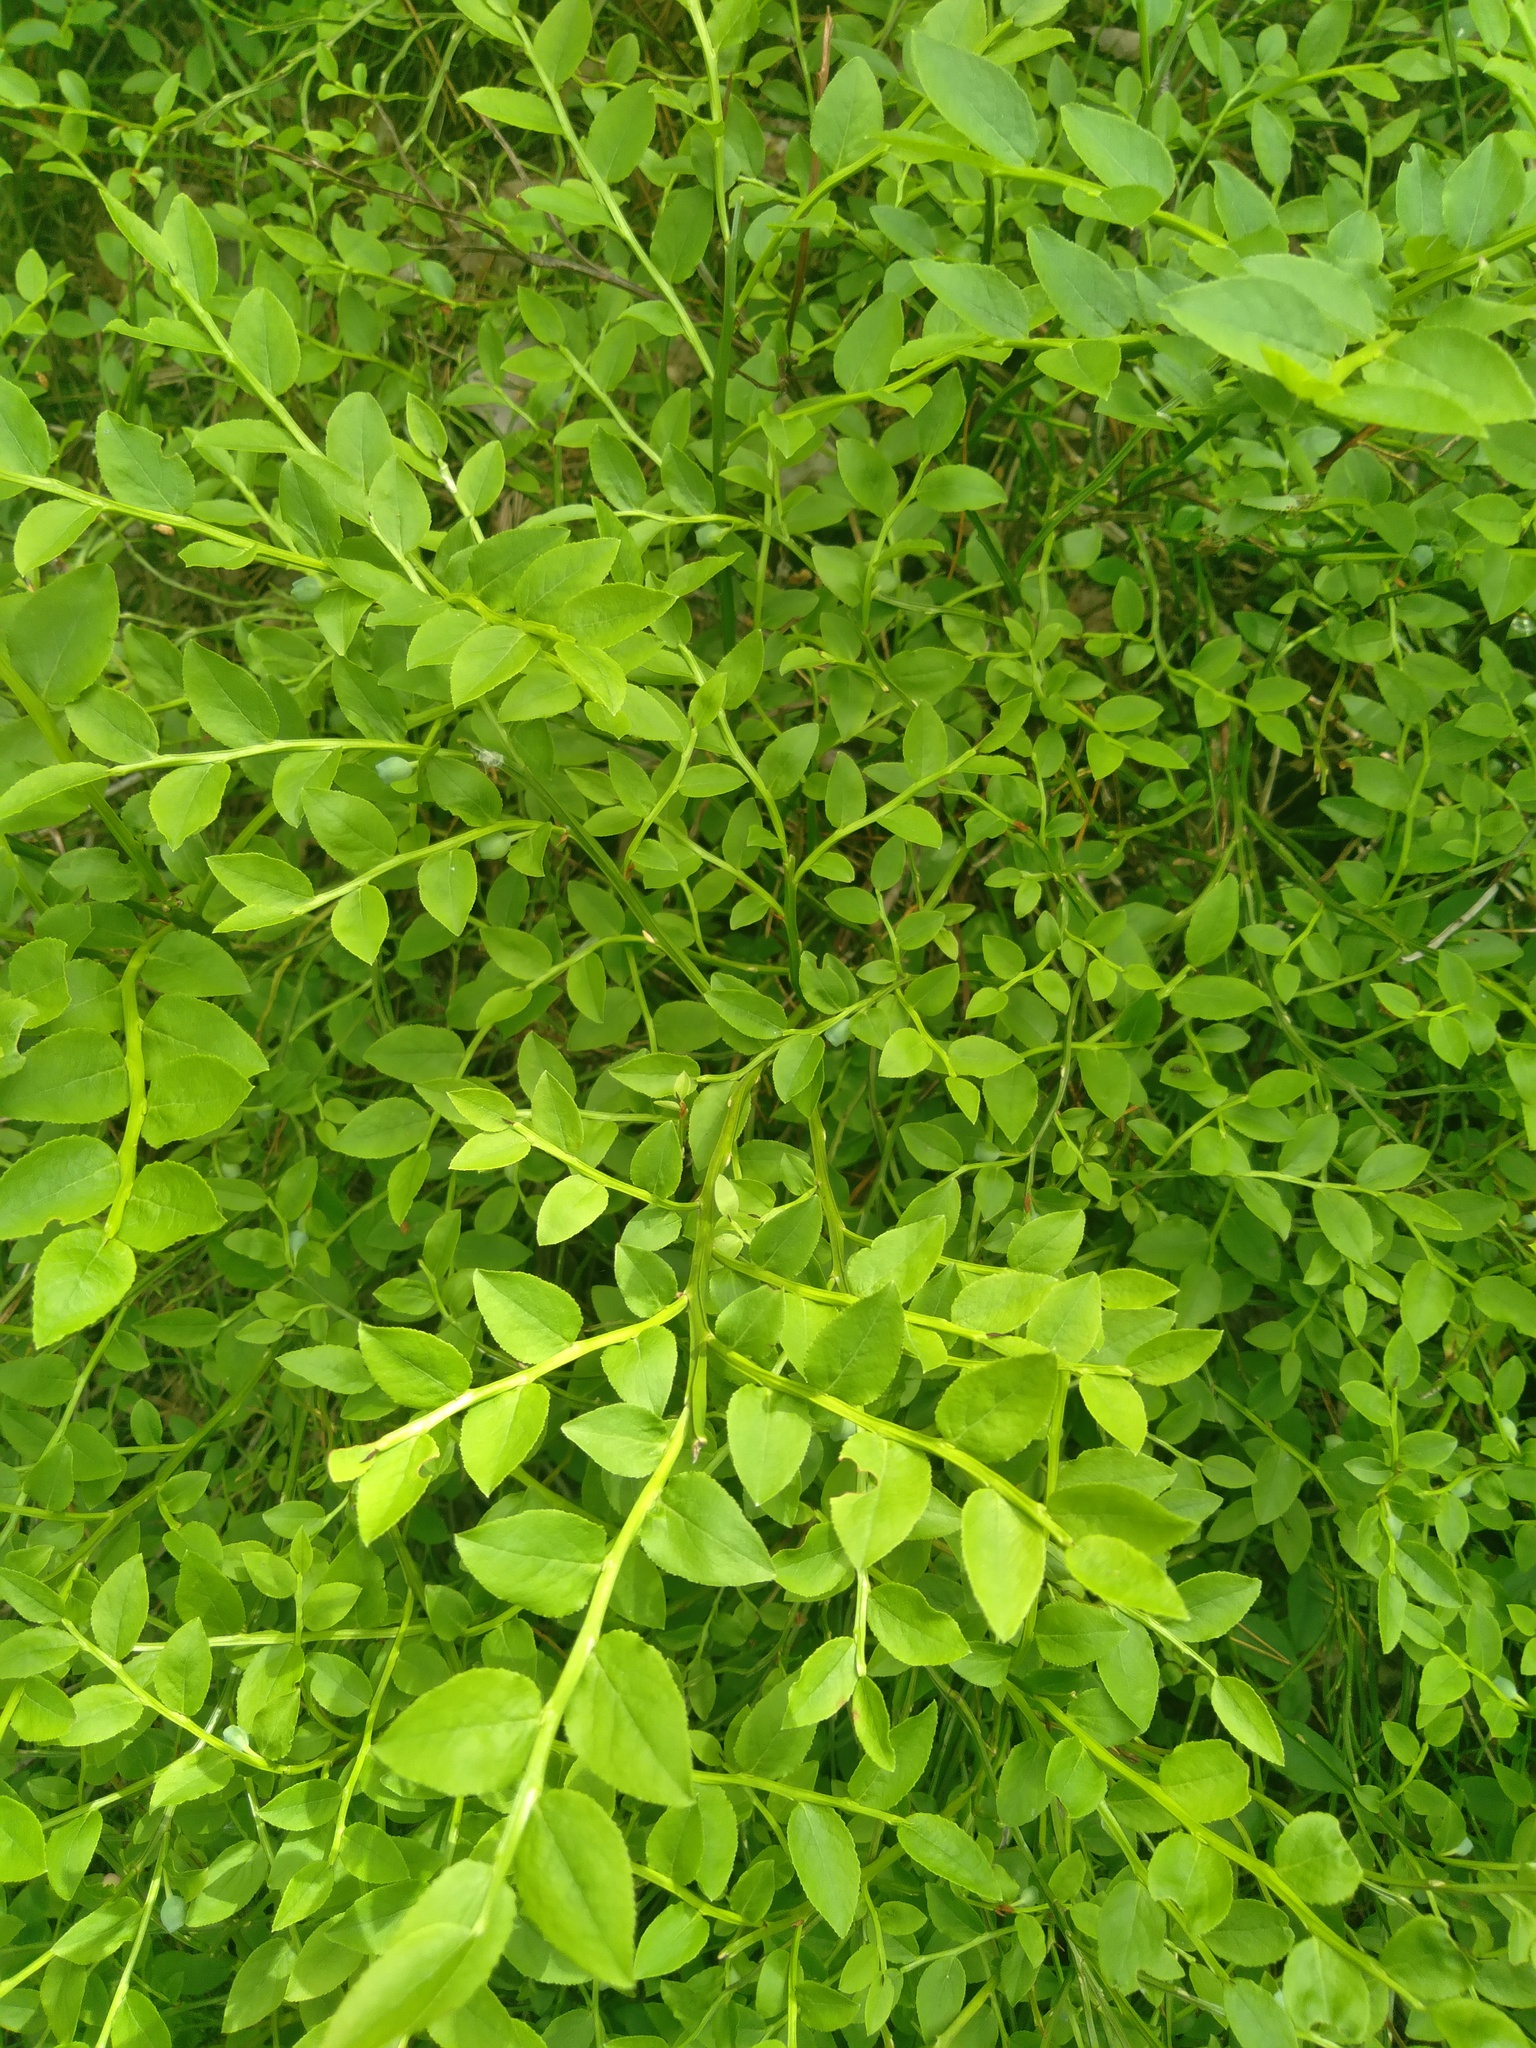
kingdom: Plantae
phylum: Tracheophyta
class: Magnoliopsida
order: Ericales
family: Ericaceae
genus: Vaccinium
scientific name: Vaccinium myrtillus
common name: Bilberry
